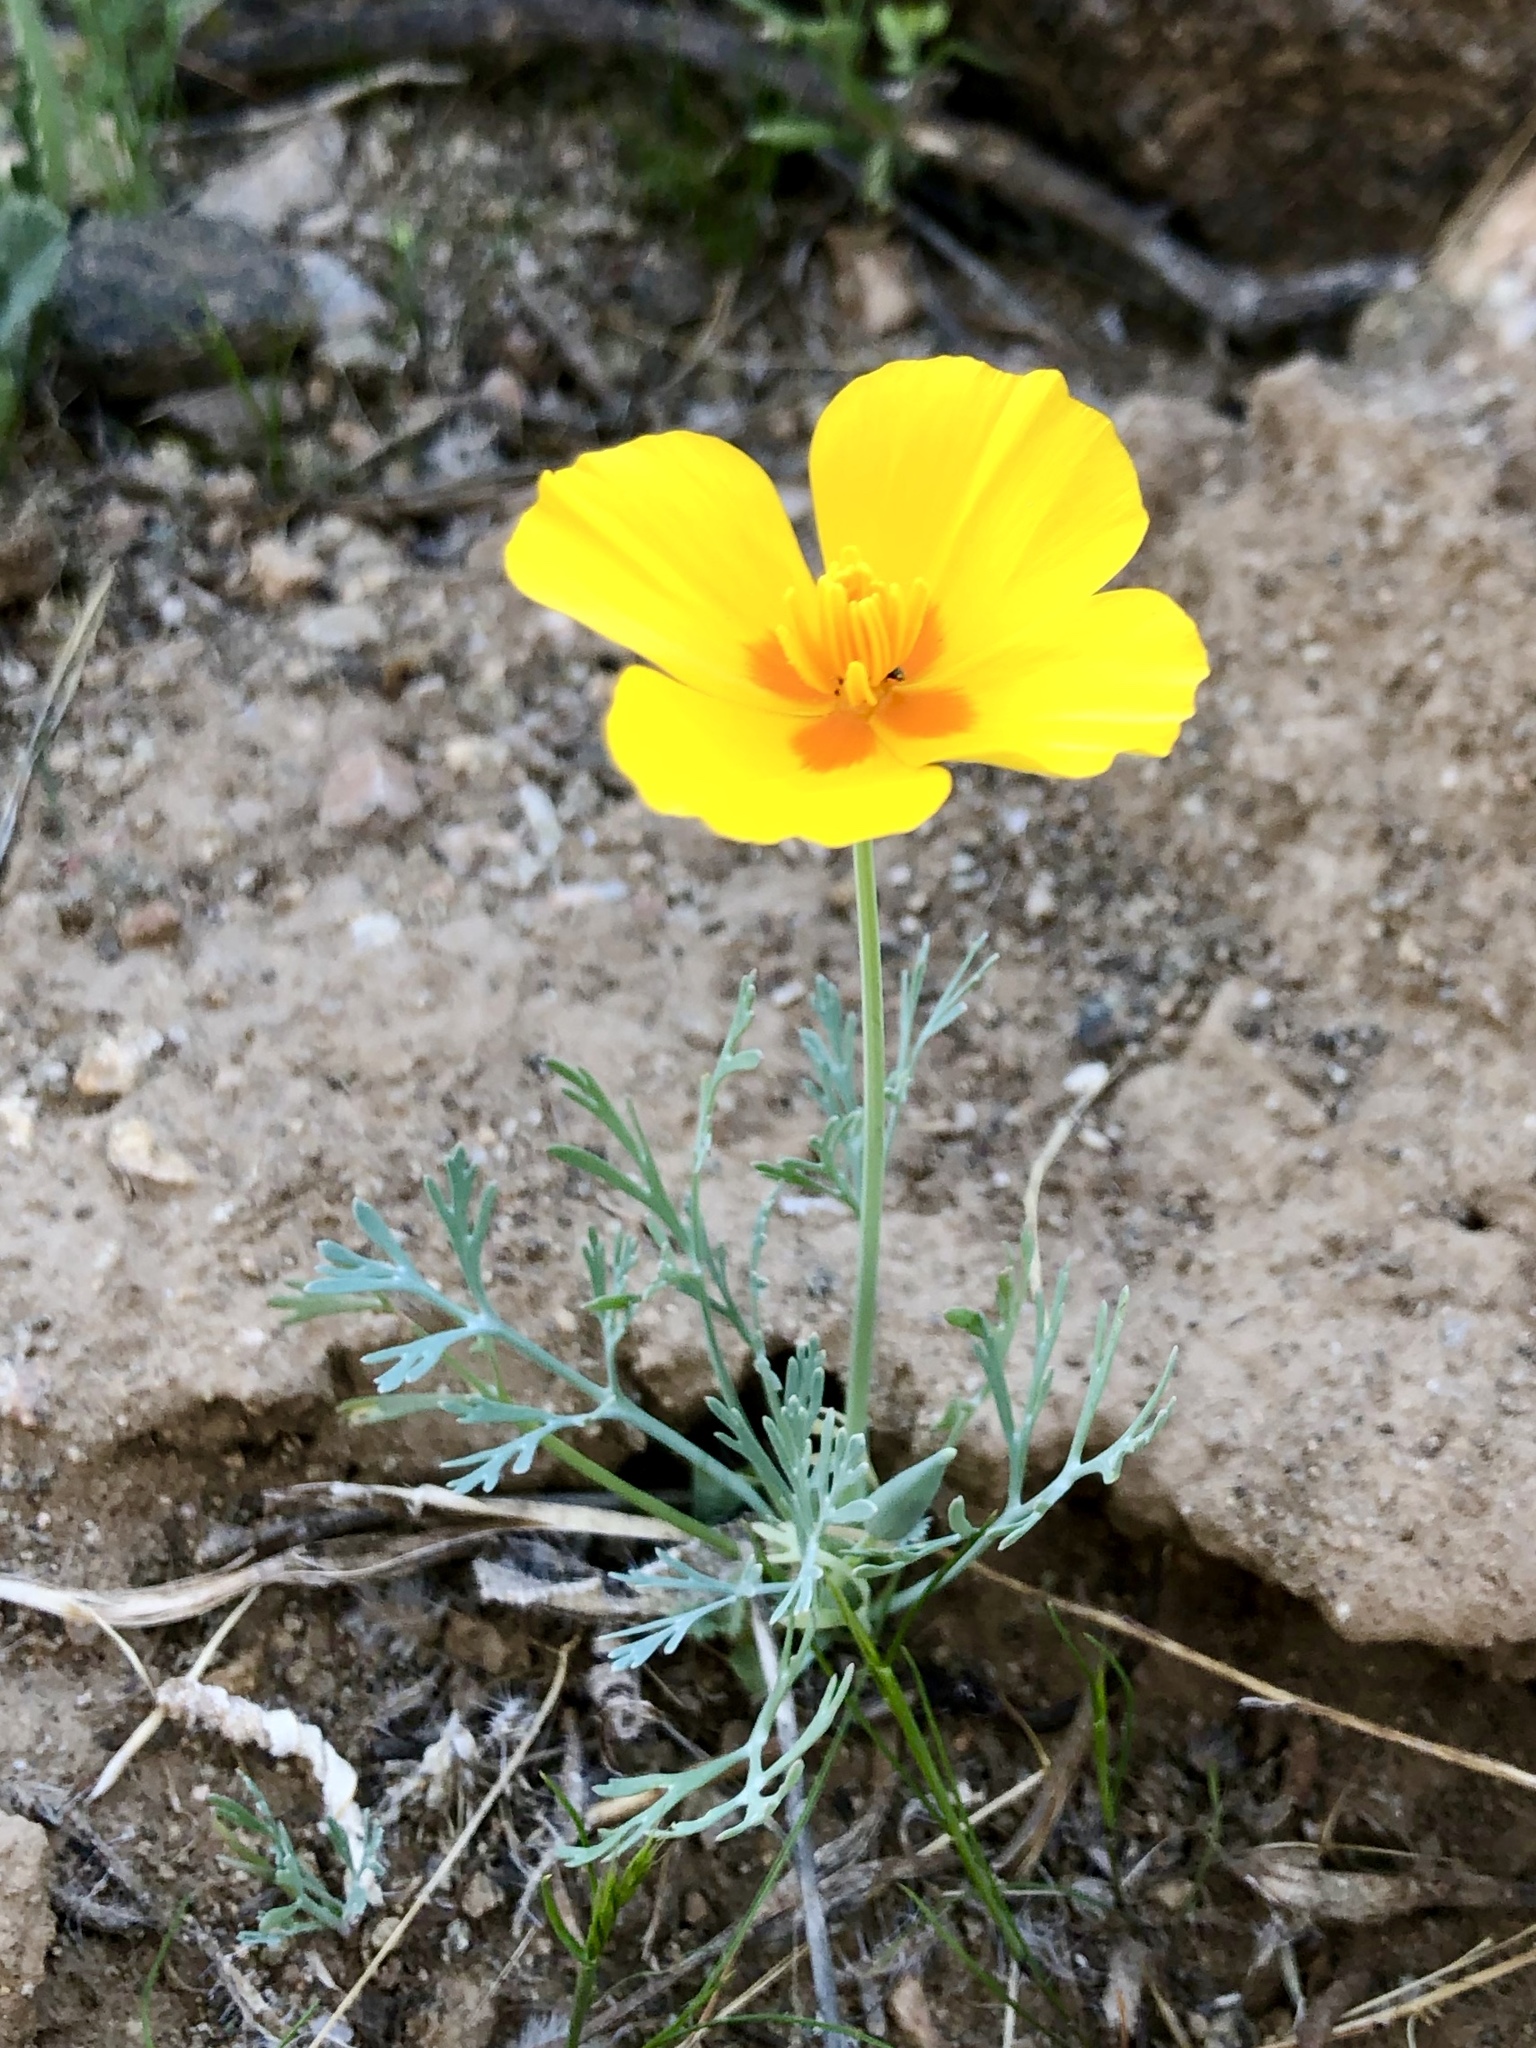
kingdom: Plantae
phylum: Tracheophyta
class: Magnoliopsida
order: Ranunculales
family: Papaveraceae
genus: Eschscholzia
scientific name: Eschscholzia californica
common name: California poppy
